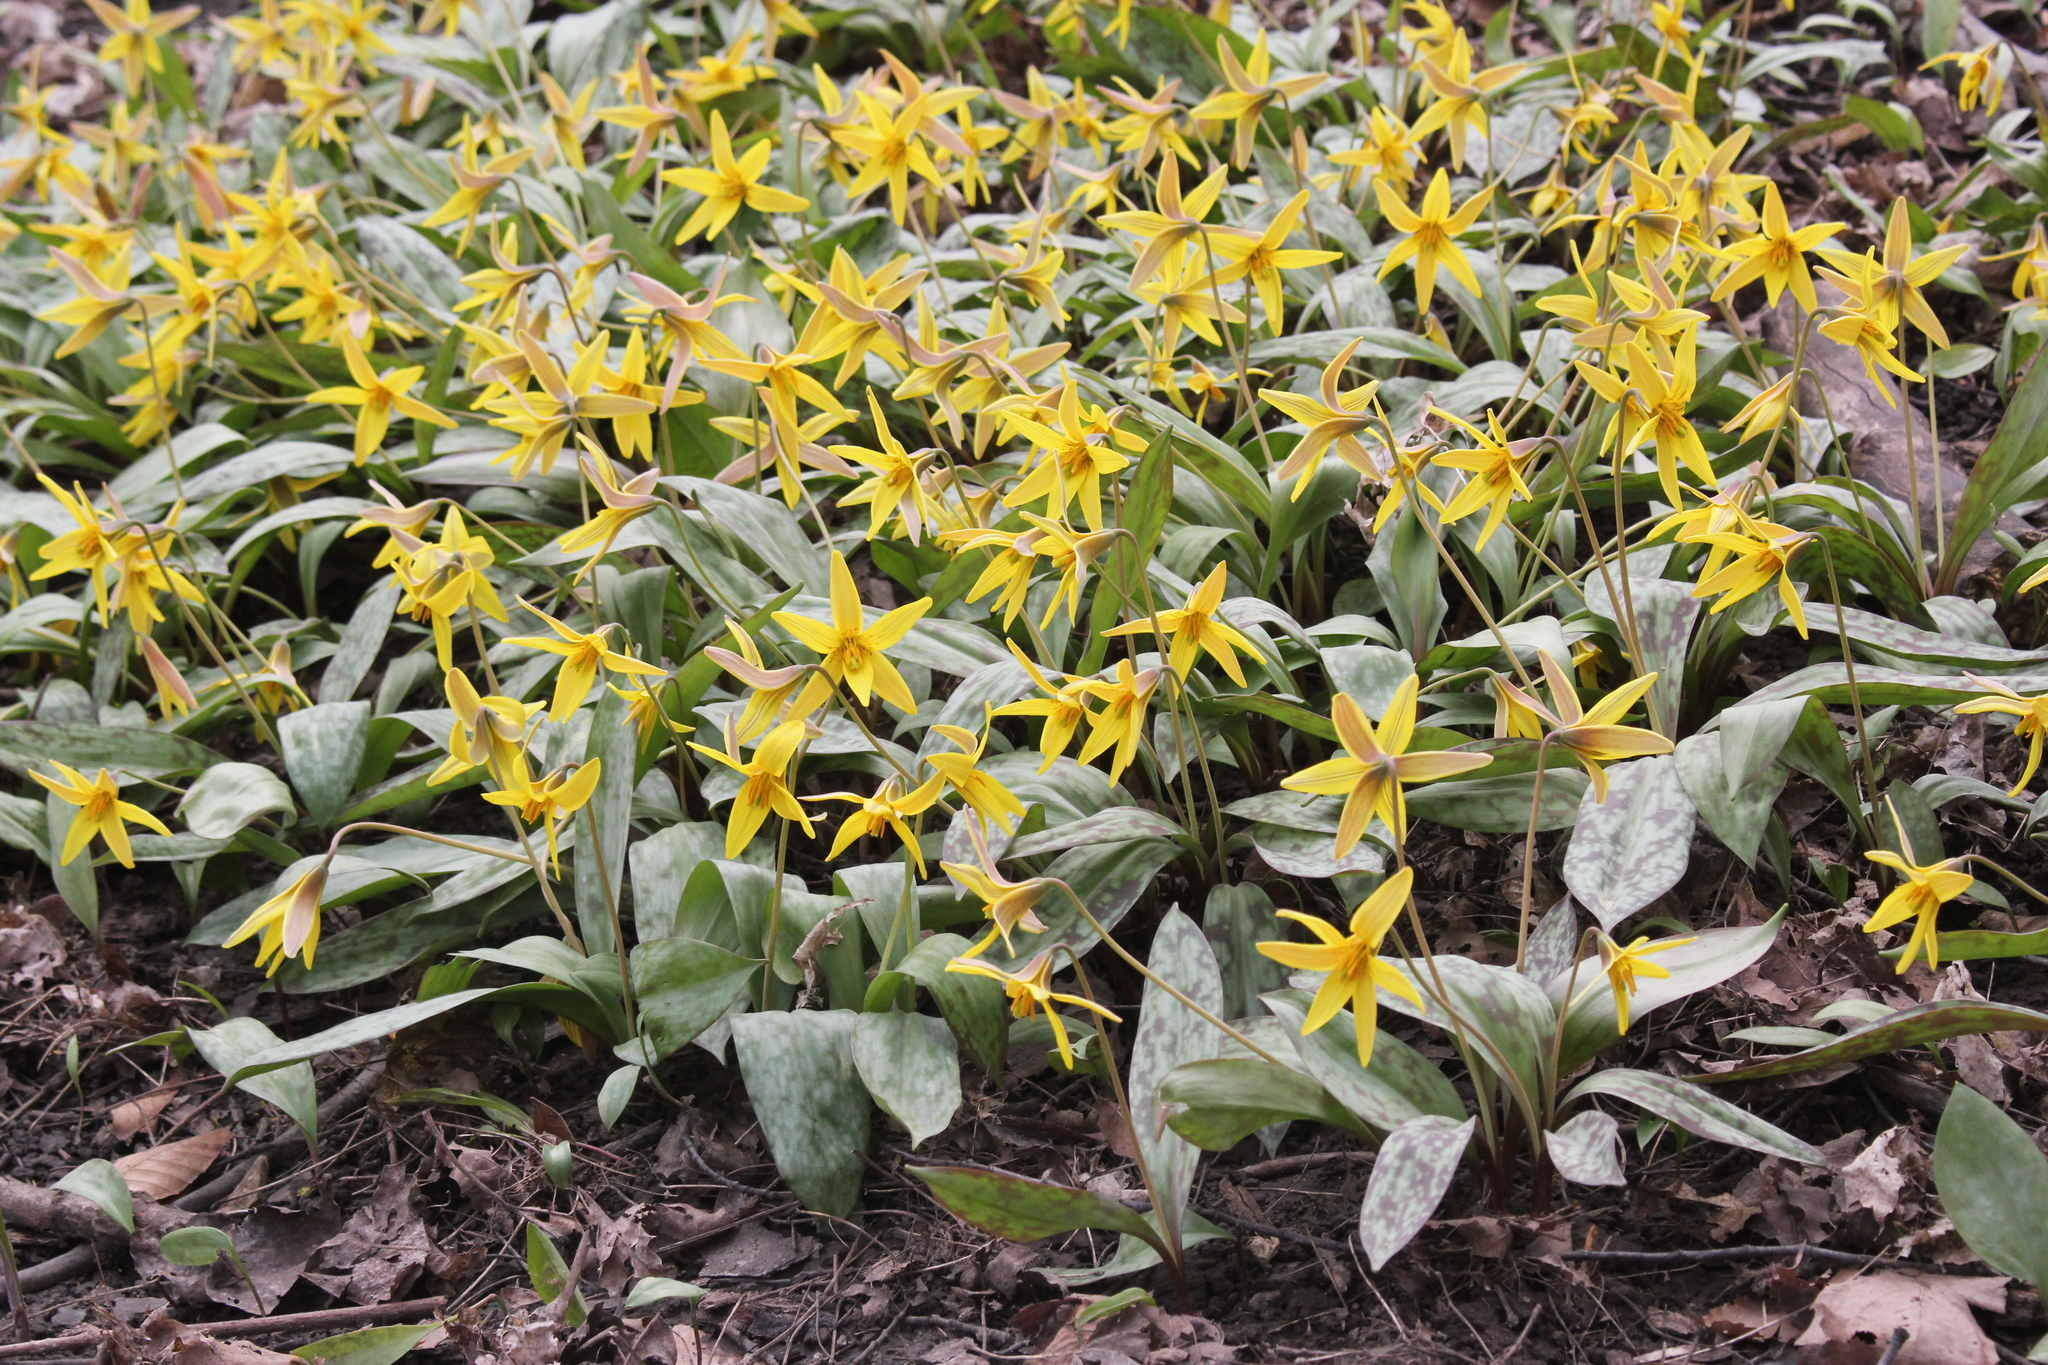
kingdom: Plantae
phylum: Tracheophyta
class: Liliopsida
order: Liliales
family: Liliaceae
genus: Erythronium
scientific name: Erythronium americanum
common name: Yellow adder's-tongue
